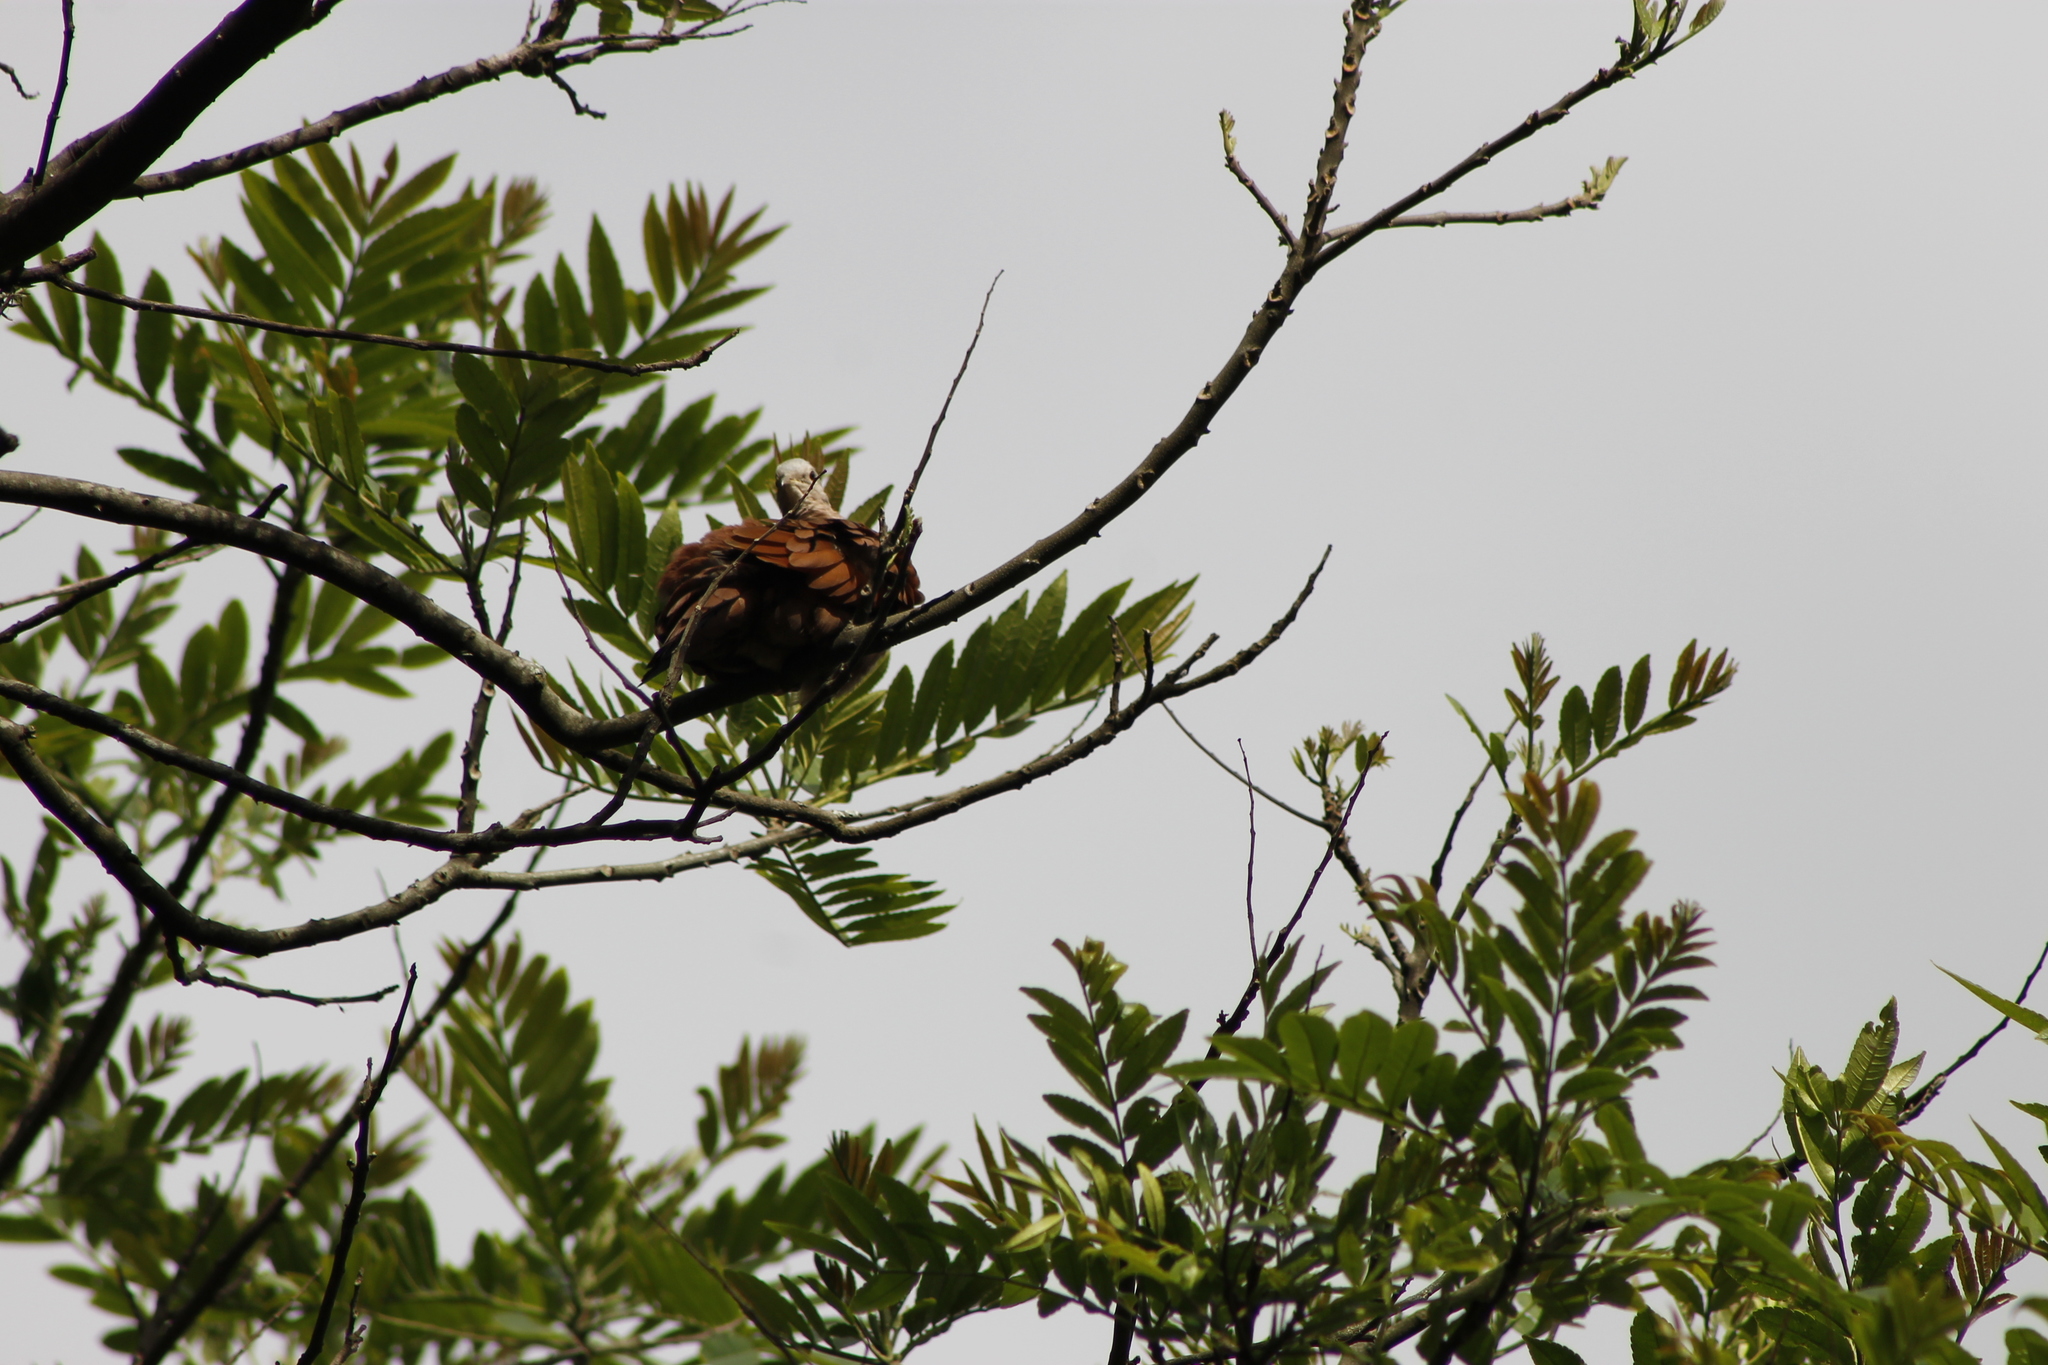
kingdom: Animalia
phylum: Chordata
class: Aves
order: Columbiformes
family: Columbidae
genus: Columbina
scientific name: Columbina talpacoti
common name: Ruddy ground dove
